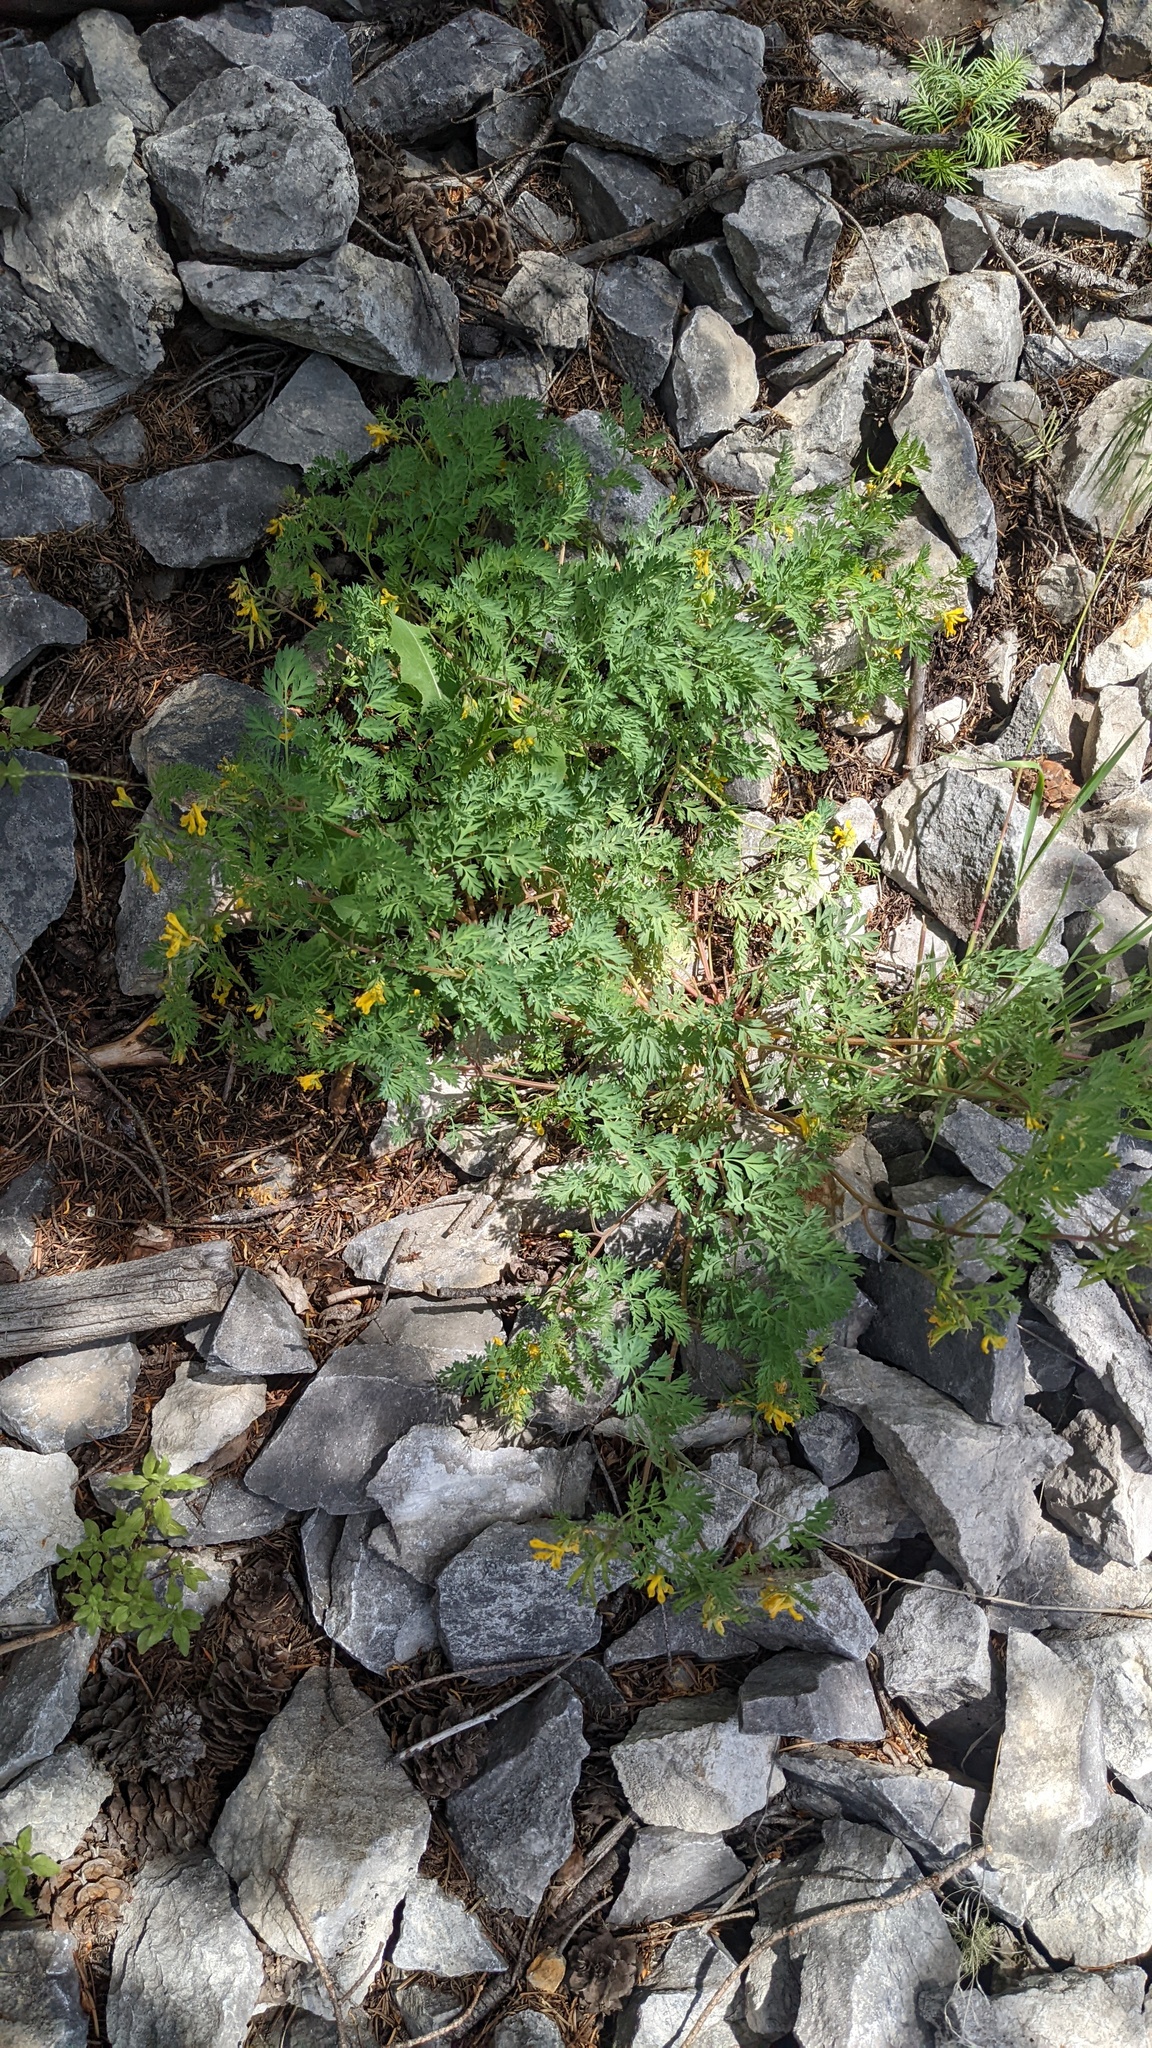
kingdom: Plantae
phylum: Tracheophyta
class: Magnoliopsida
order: Ranunculales
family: Papaveraceae
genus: Corydalis
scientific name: Corydalis aurea
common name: Golden corydalis
